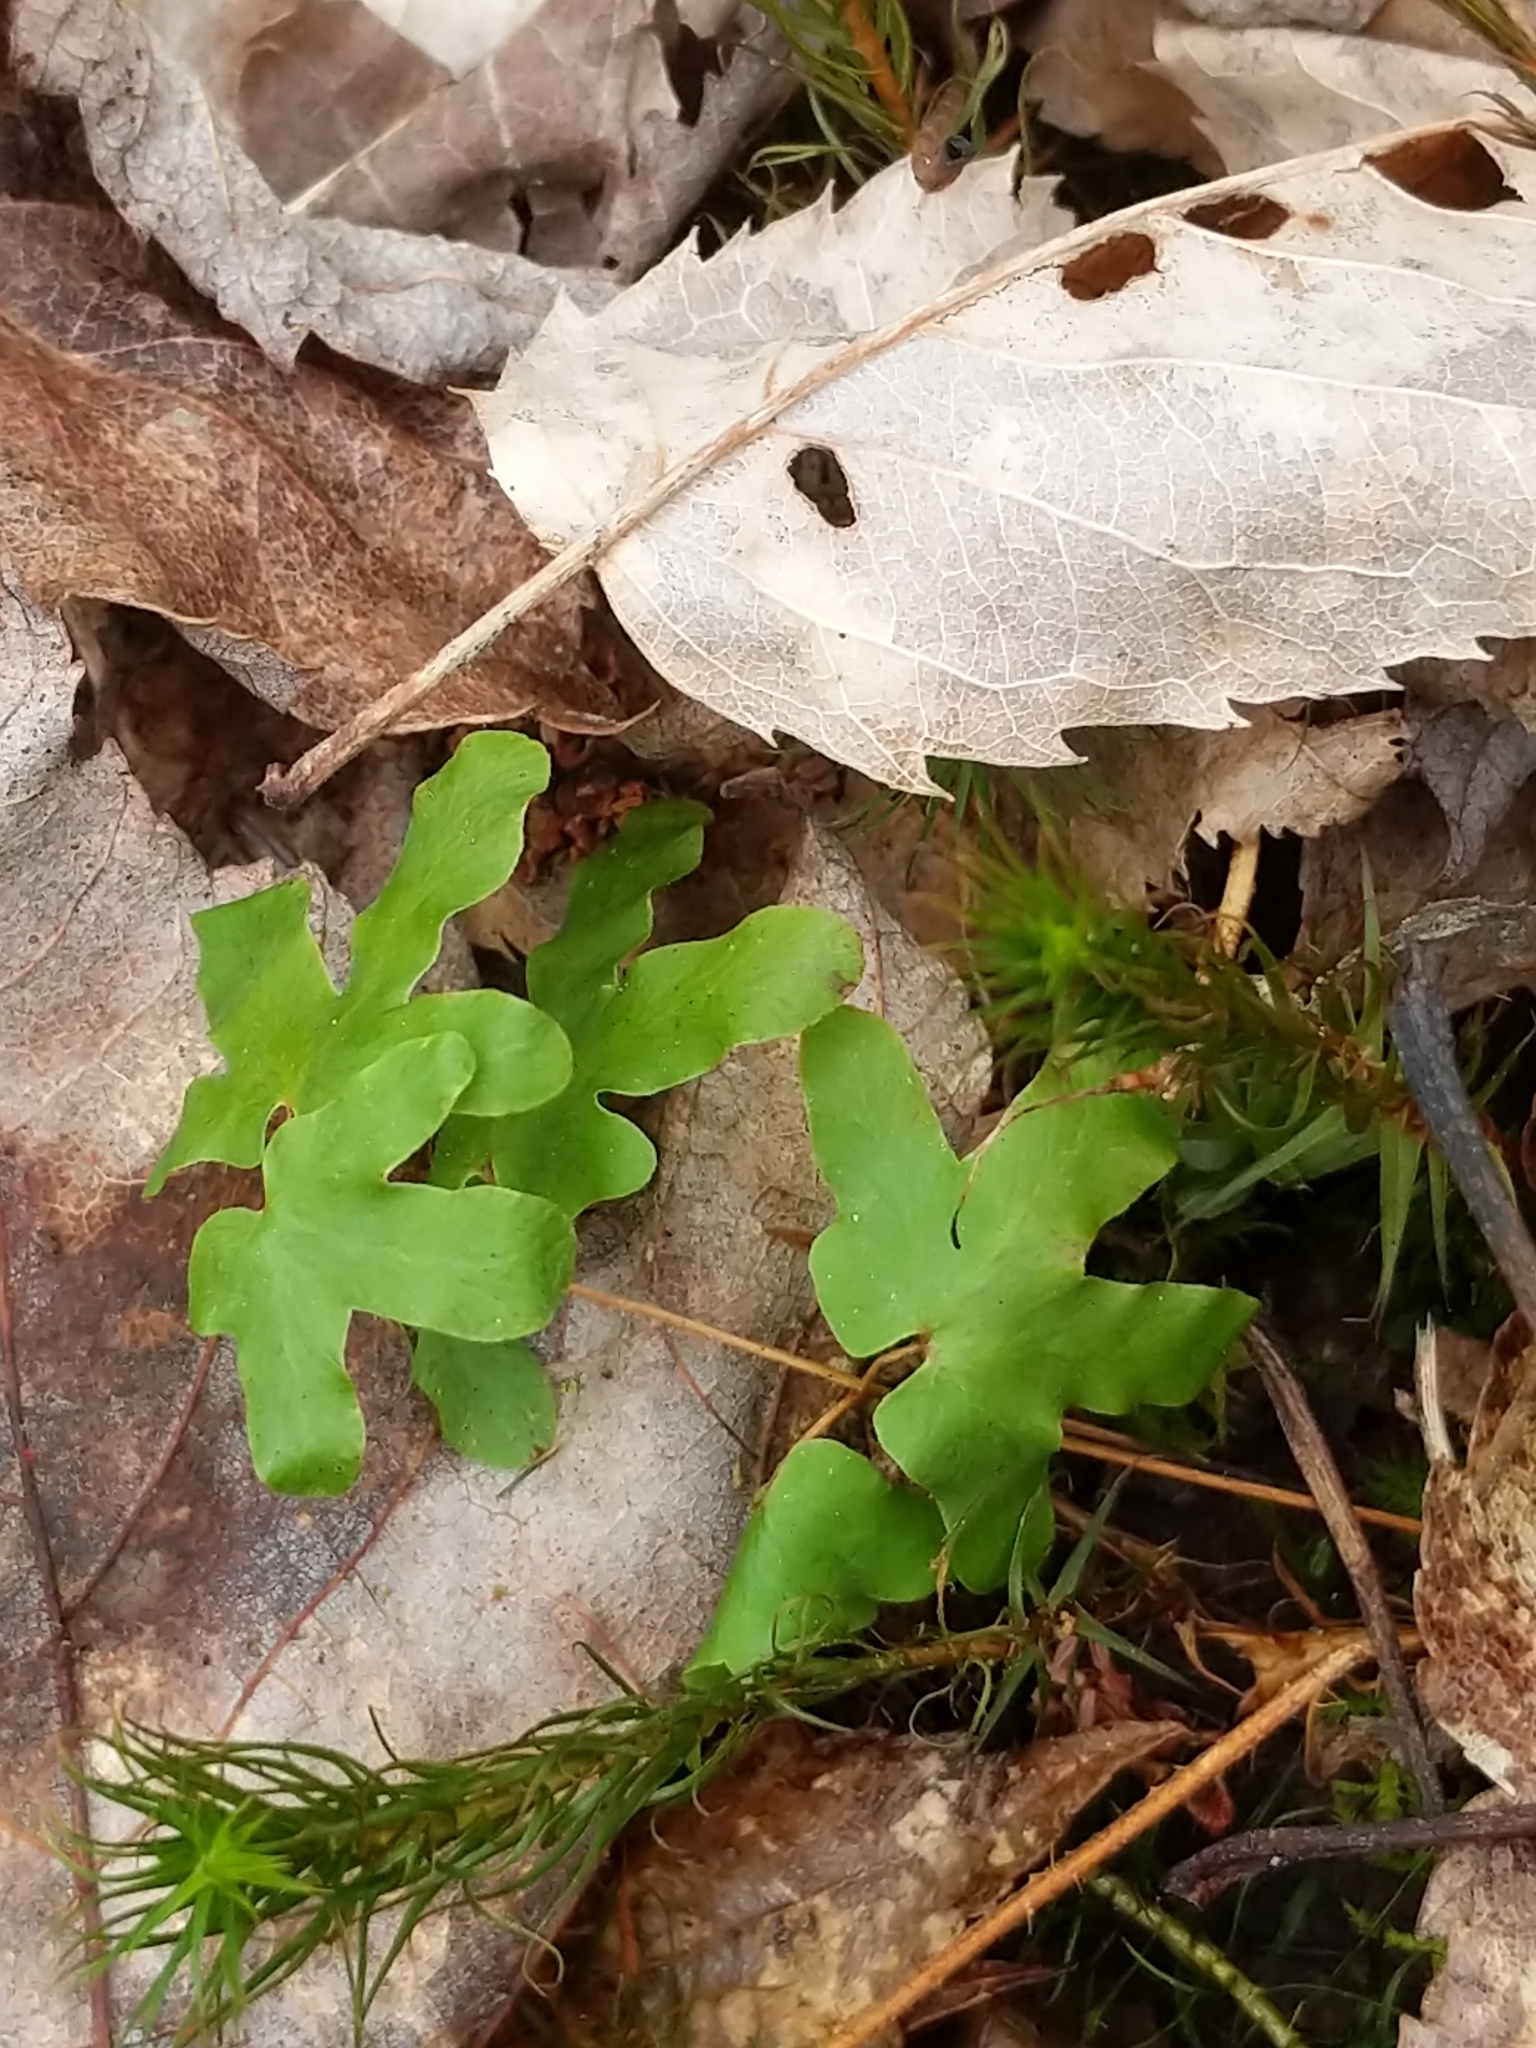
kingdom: Plantae
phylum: Tracheophyta
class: Polypodiopsida
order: Schizaeales
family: Lygodiaceae
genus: Lygodium
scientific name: Lygodium palmatum
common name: American climbing fern
